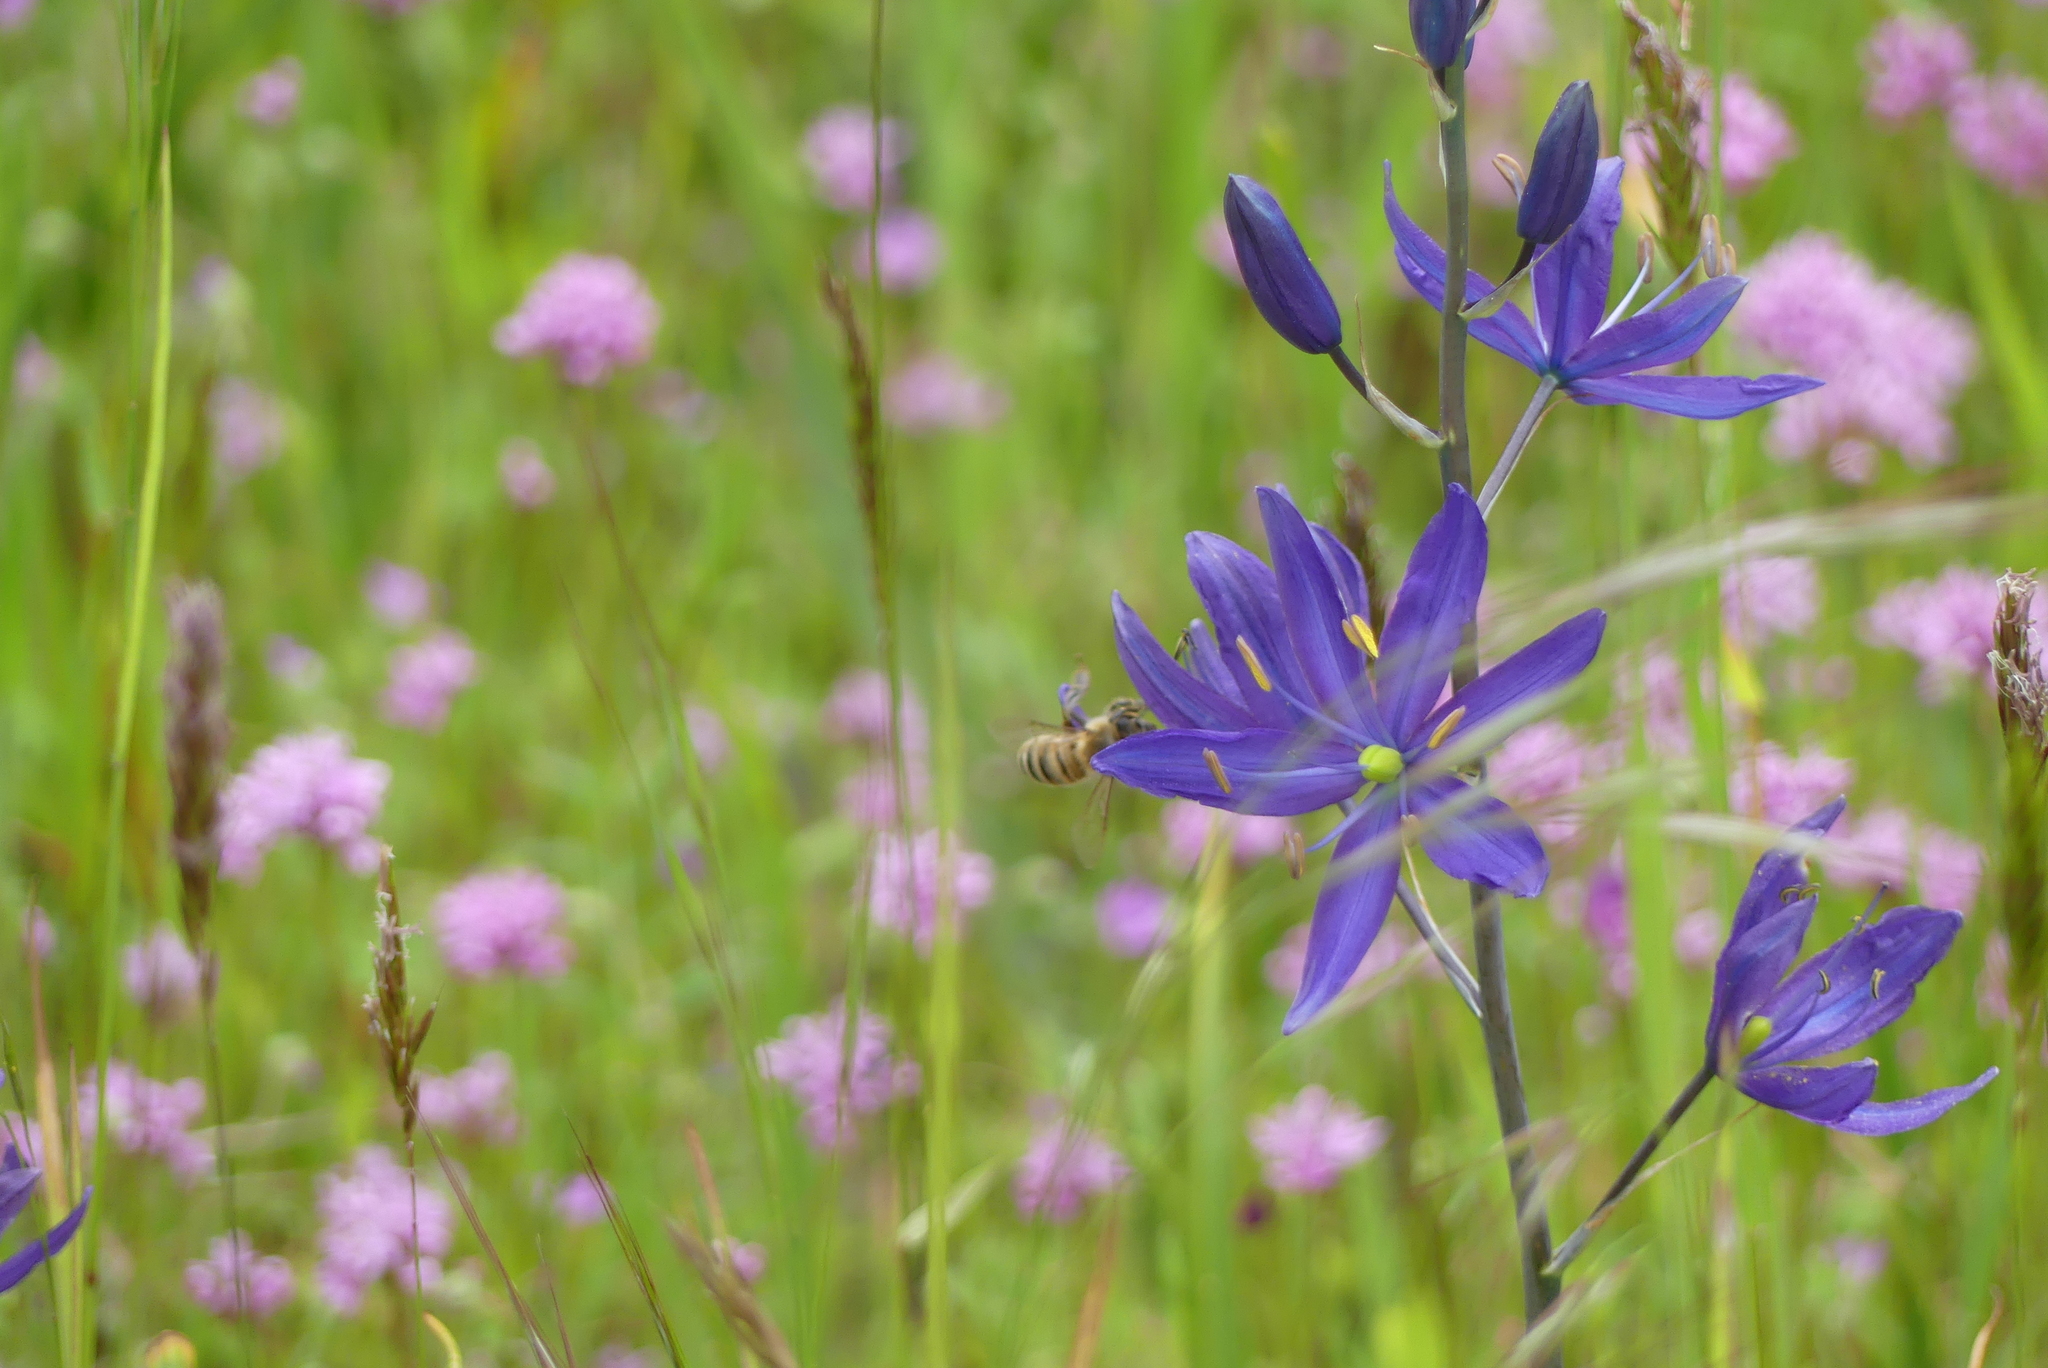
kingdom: Animalia
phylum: Arthropoda
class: Insecta
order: Hymenoptera
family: Apidae
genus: Apis
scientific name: Apis mellifera
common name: Honey bee
